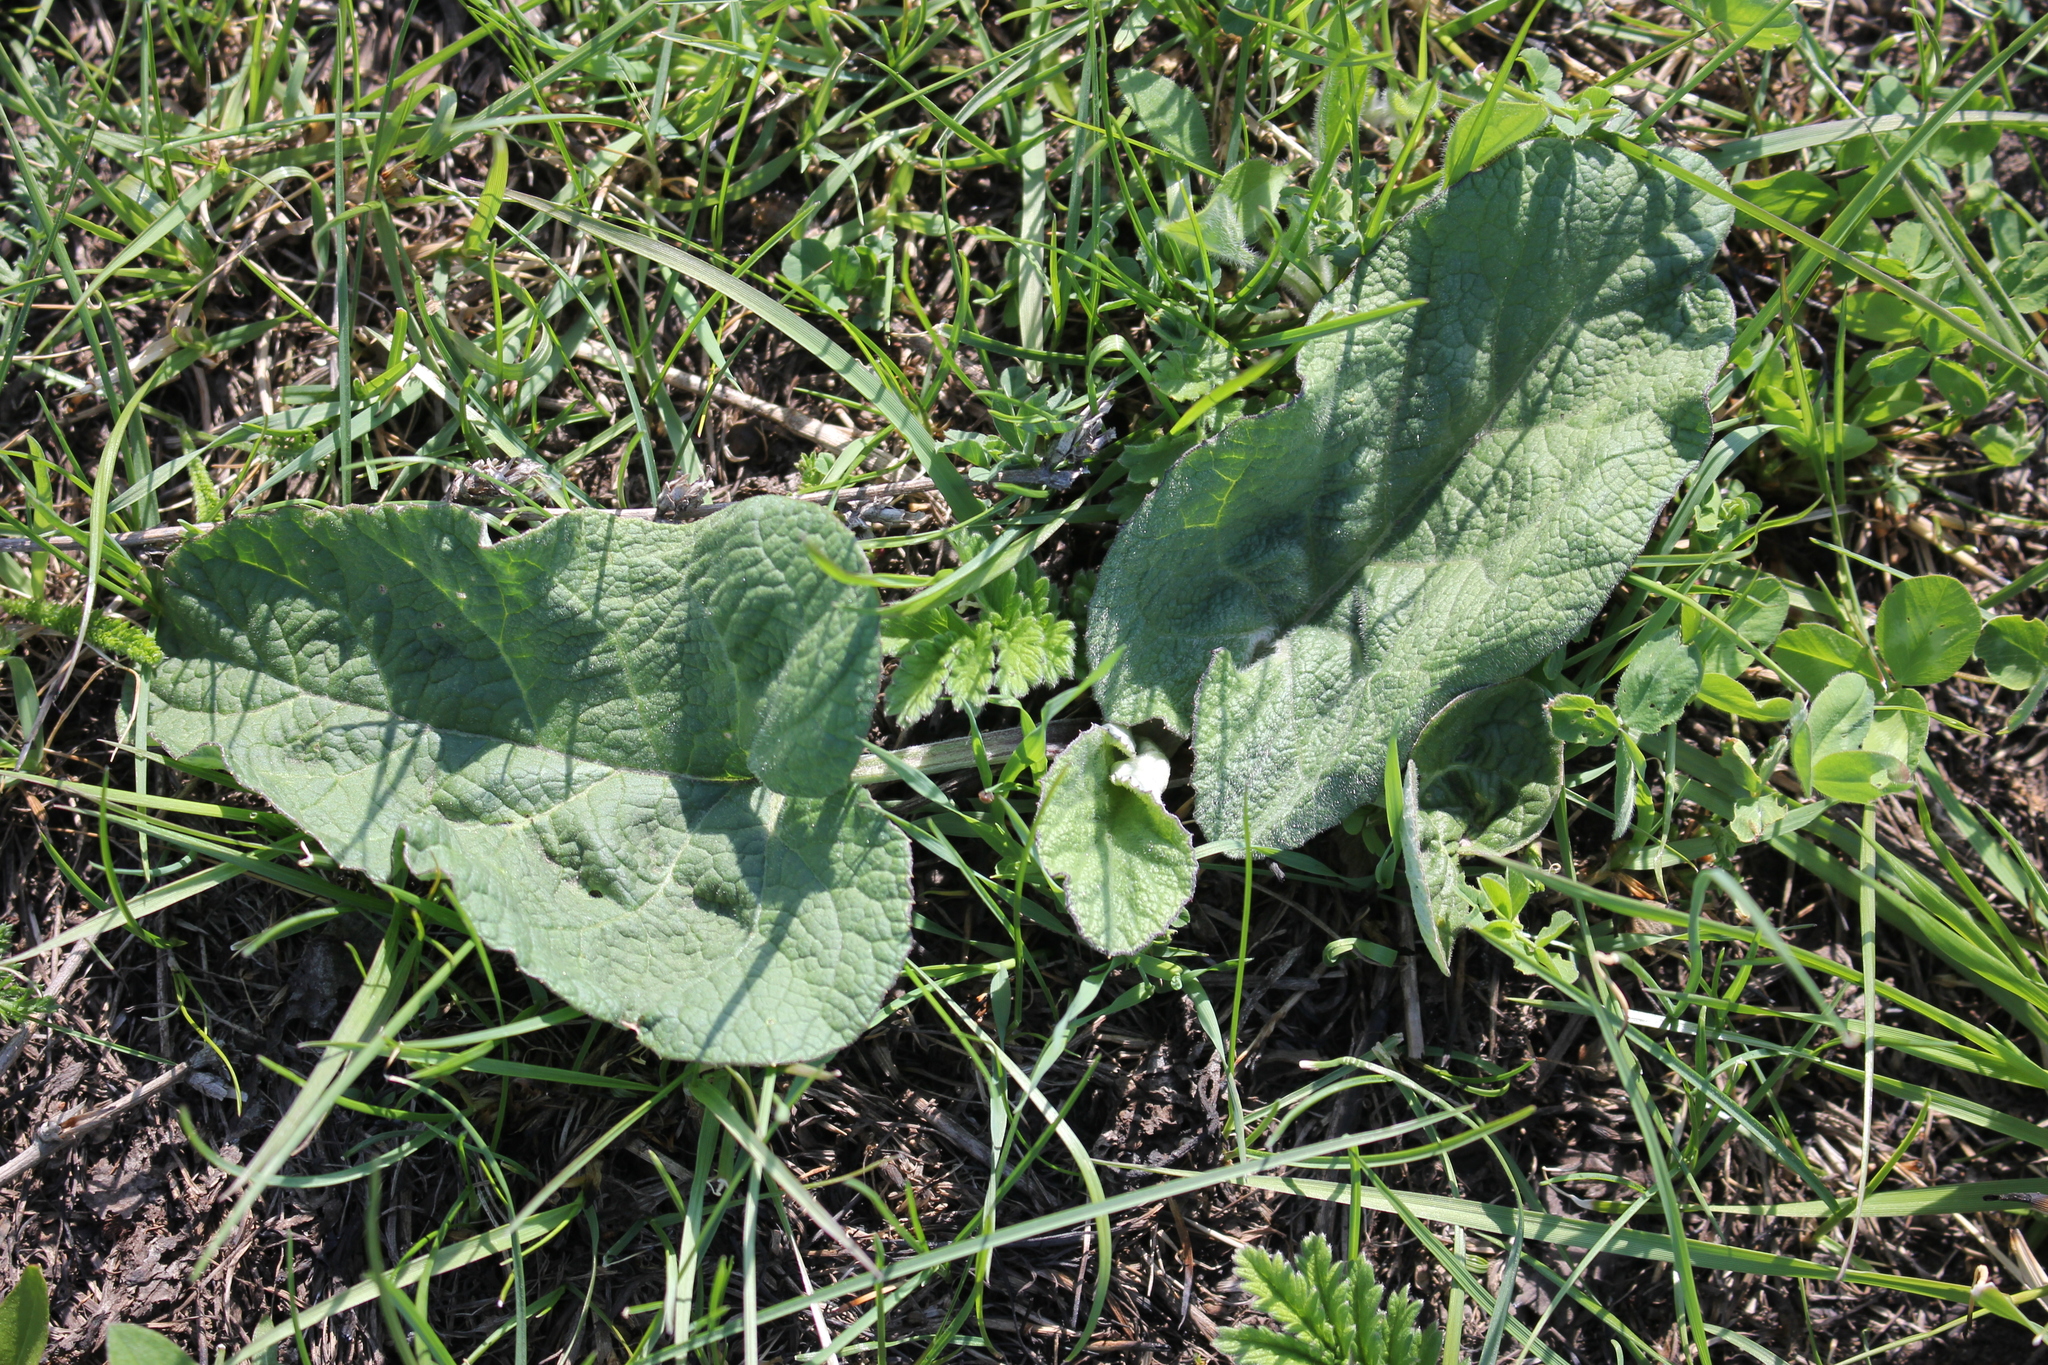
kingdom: Plantae
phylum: Tracheophyta
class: Magnoliopsida
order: Asterales
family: Asteraceae
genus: Arctium
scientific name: Arctium
